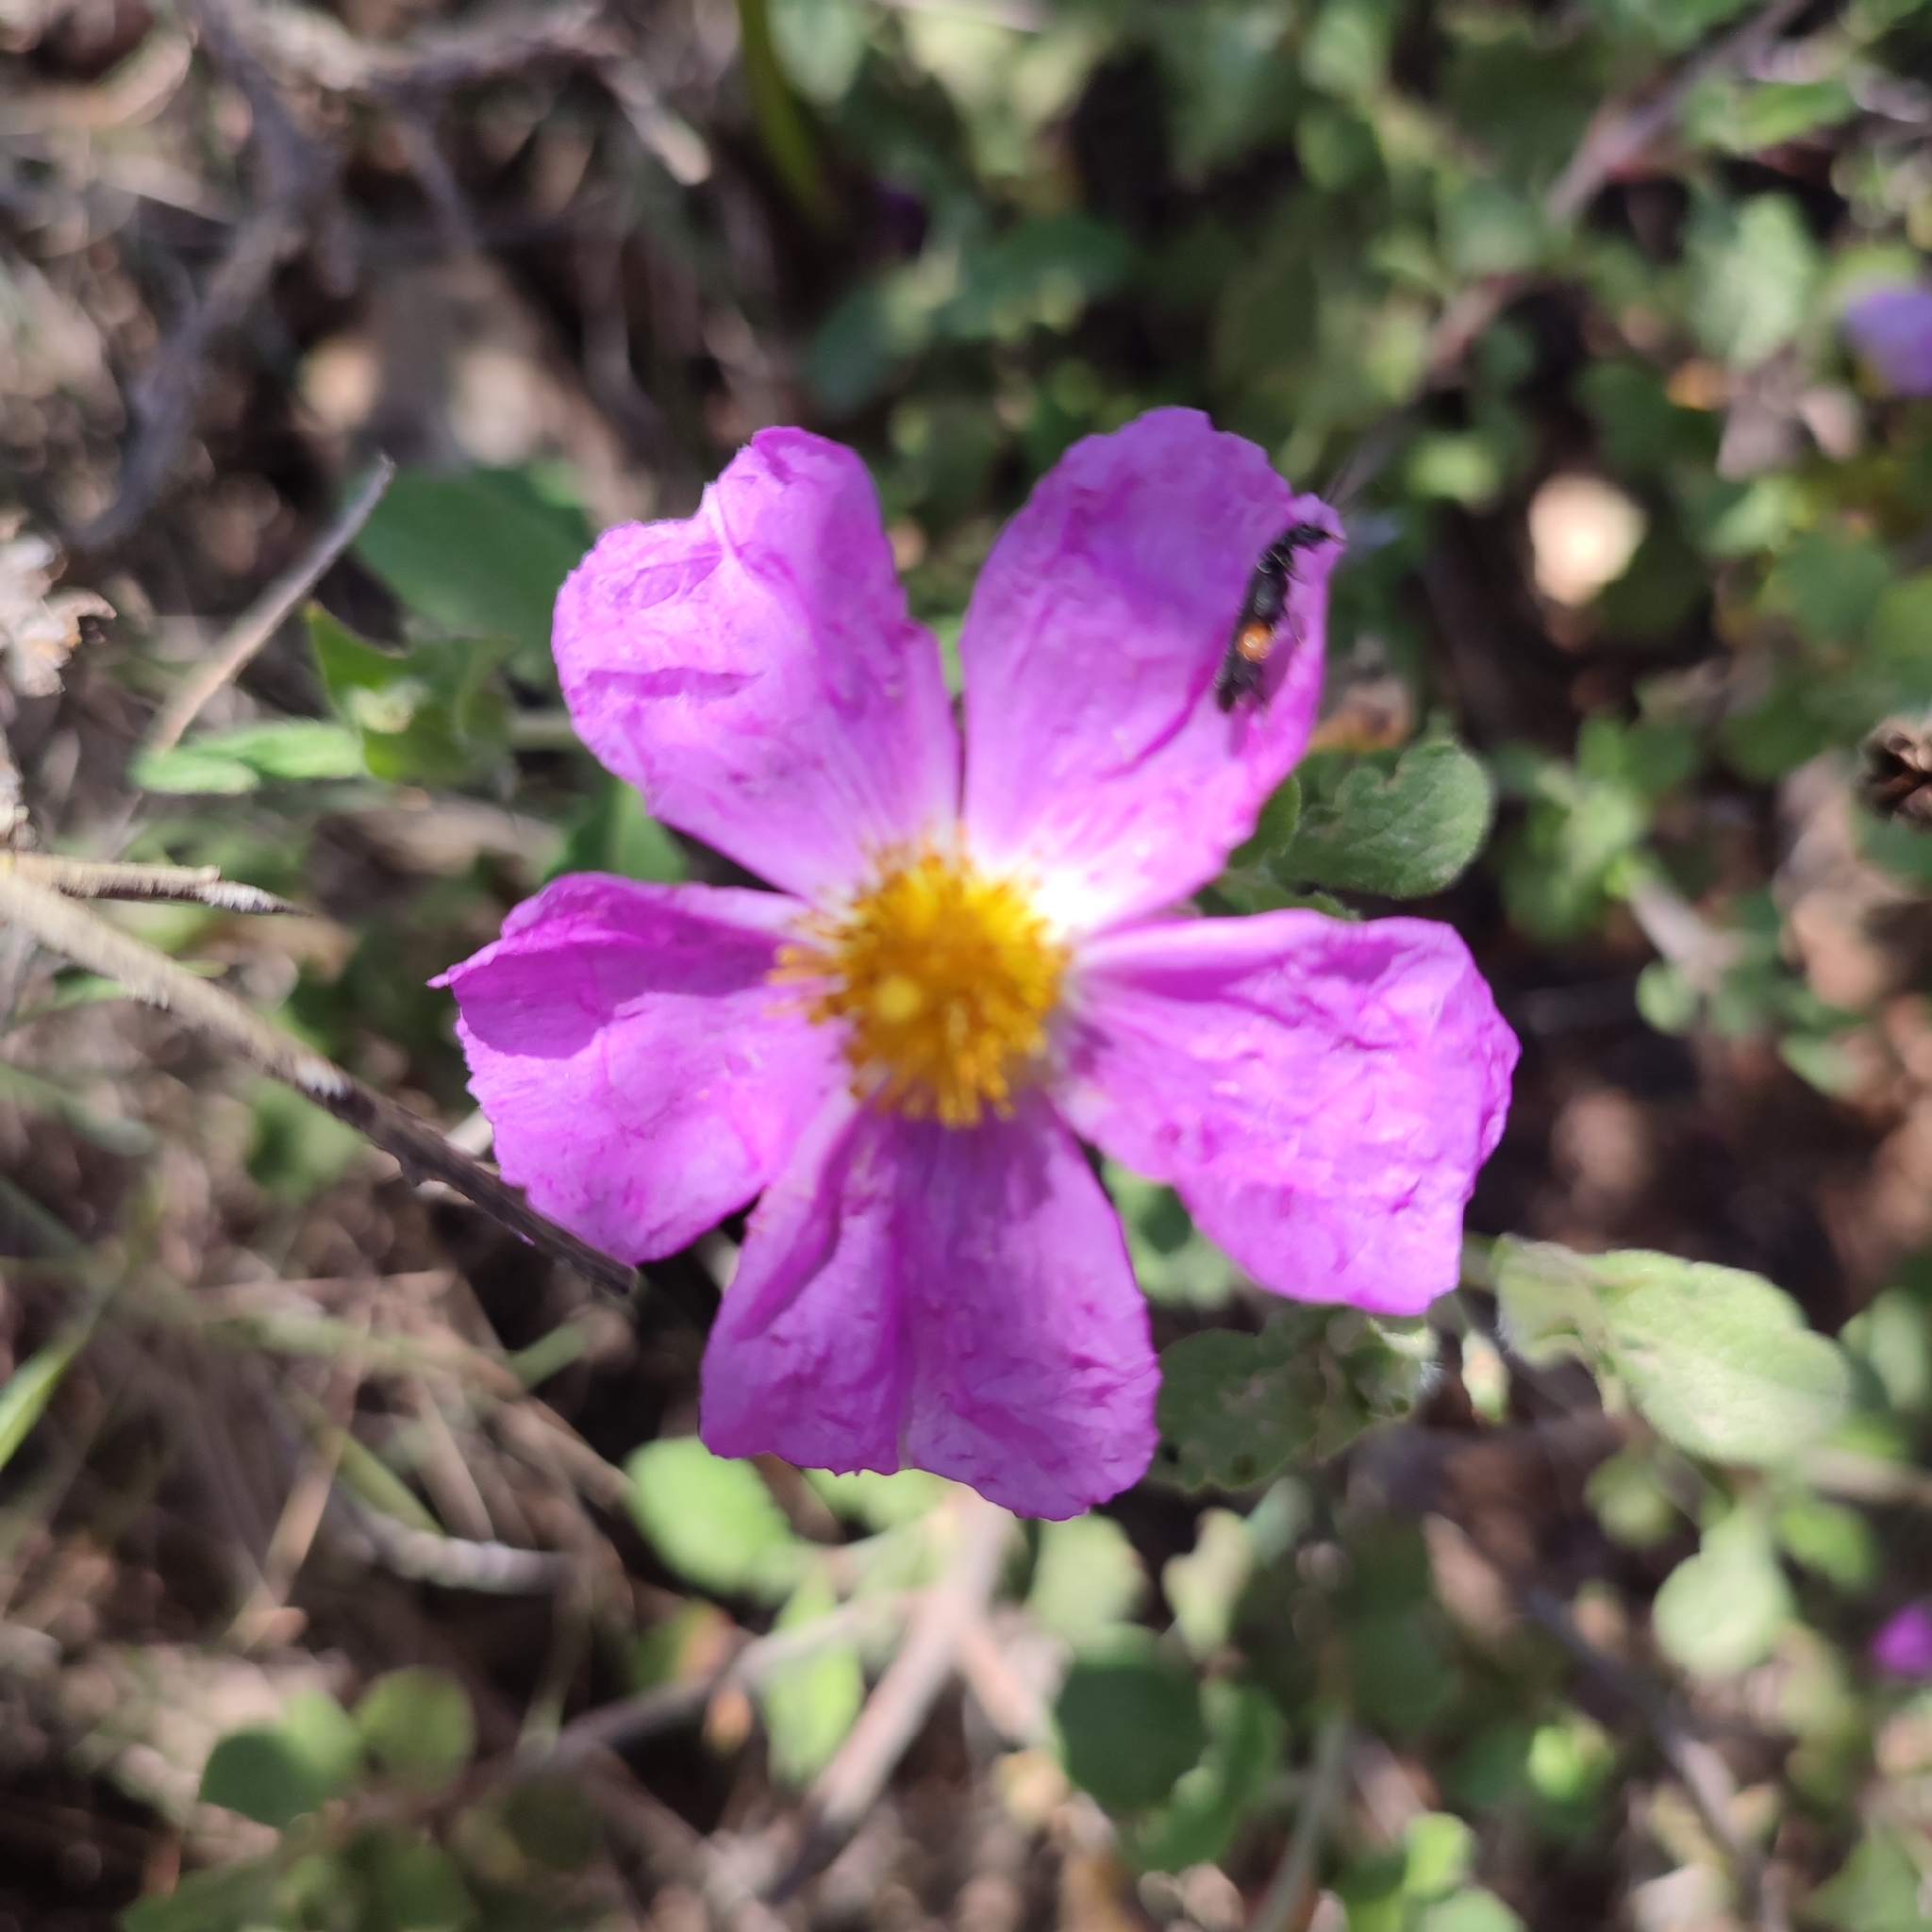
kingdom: Plantae
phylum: Tracheophyta
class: Magnoliopsida
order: Malvales
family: Cistaceae
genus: Cistus
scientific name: Cistus creticus
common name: Cretan rockrose
